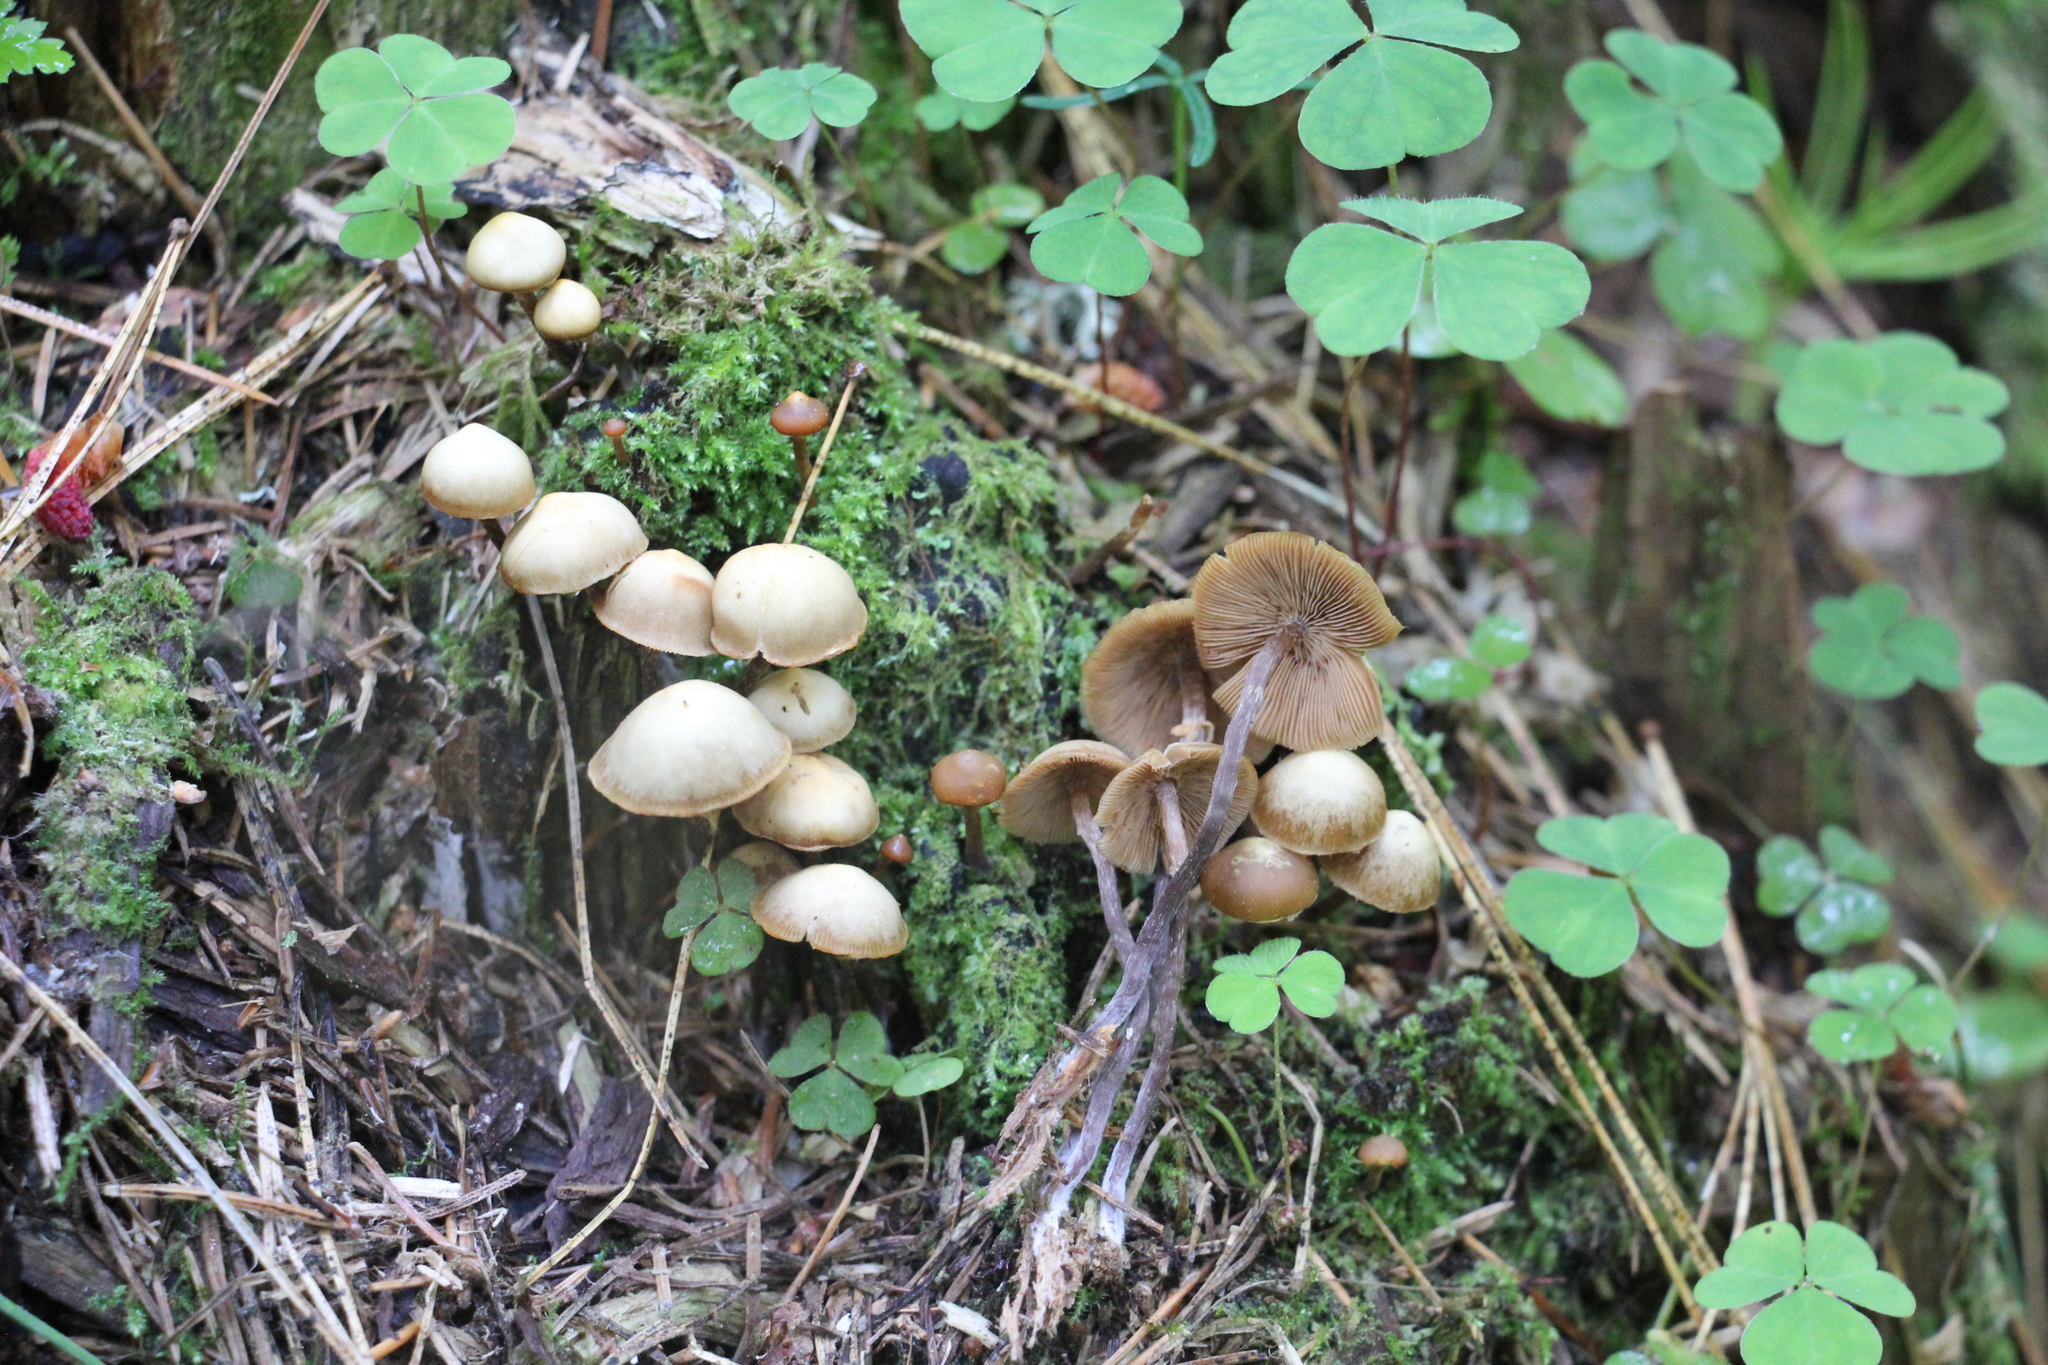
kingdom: Fungi
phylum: Basidiomycota
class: Agaricomycetes
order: Agaricales
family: Strophariaceae
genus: Pholiota
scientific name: Pholiota lignicola
